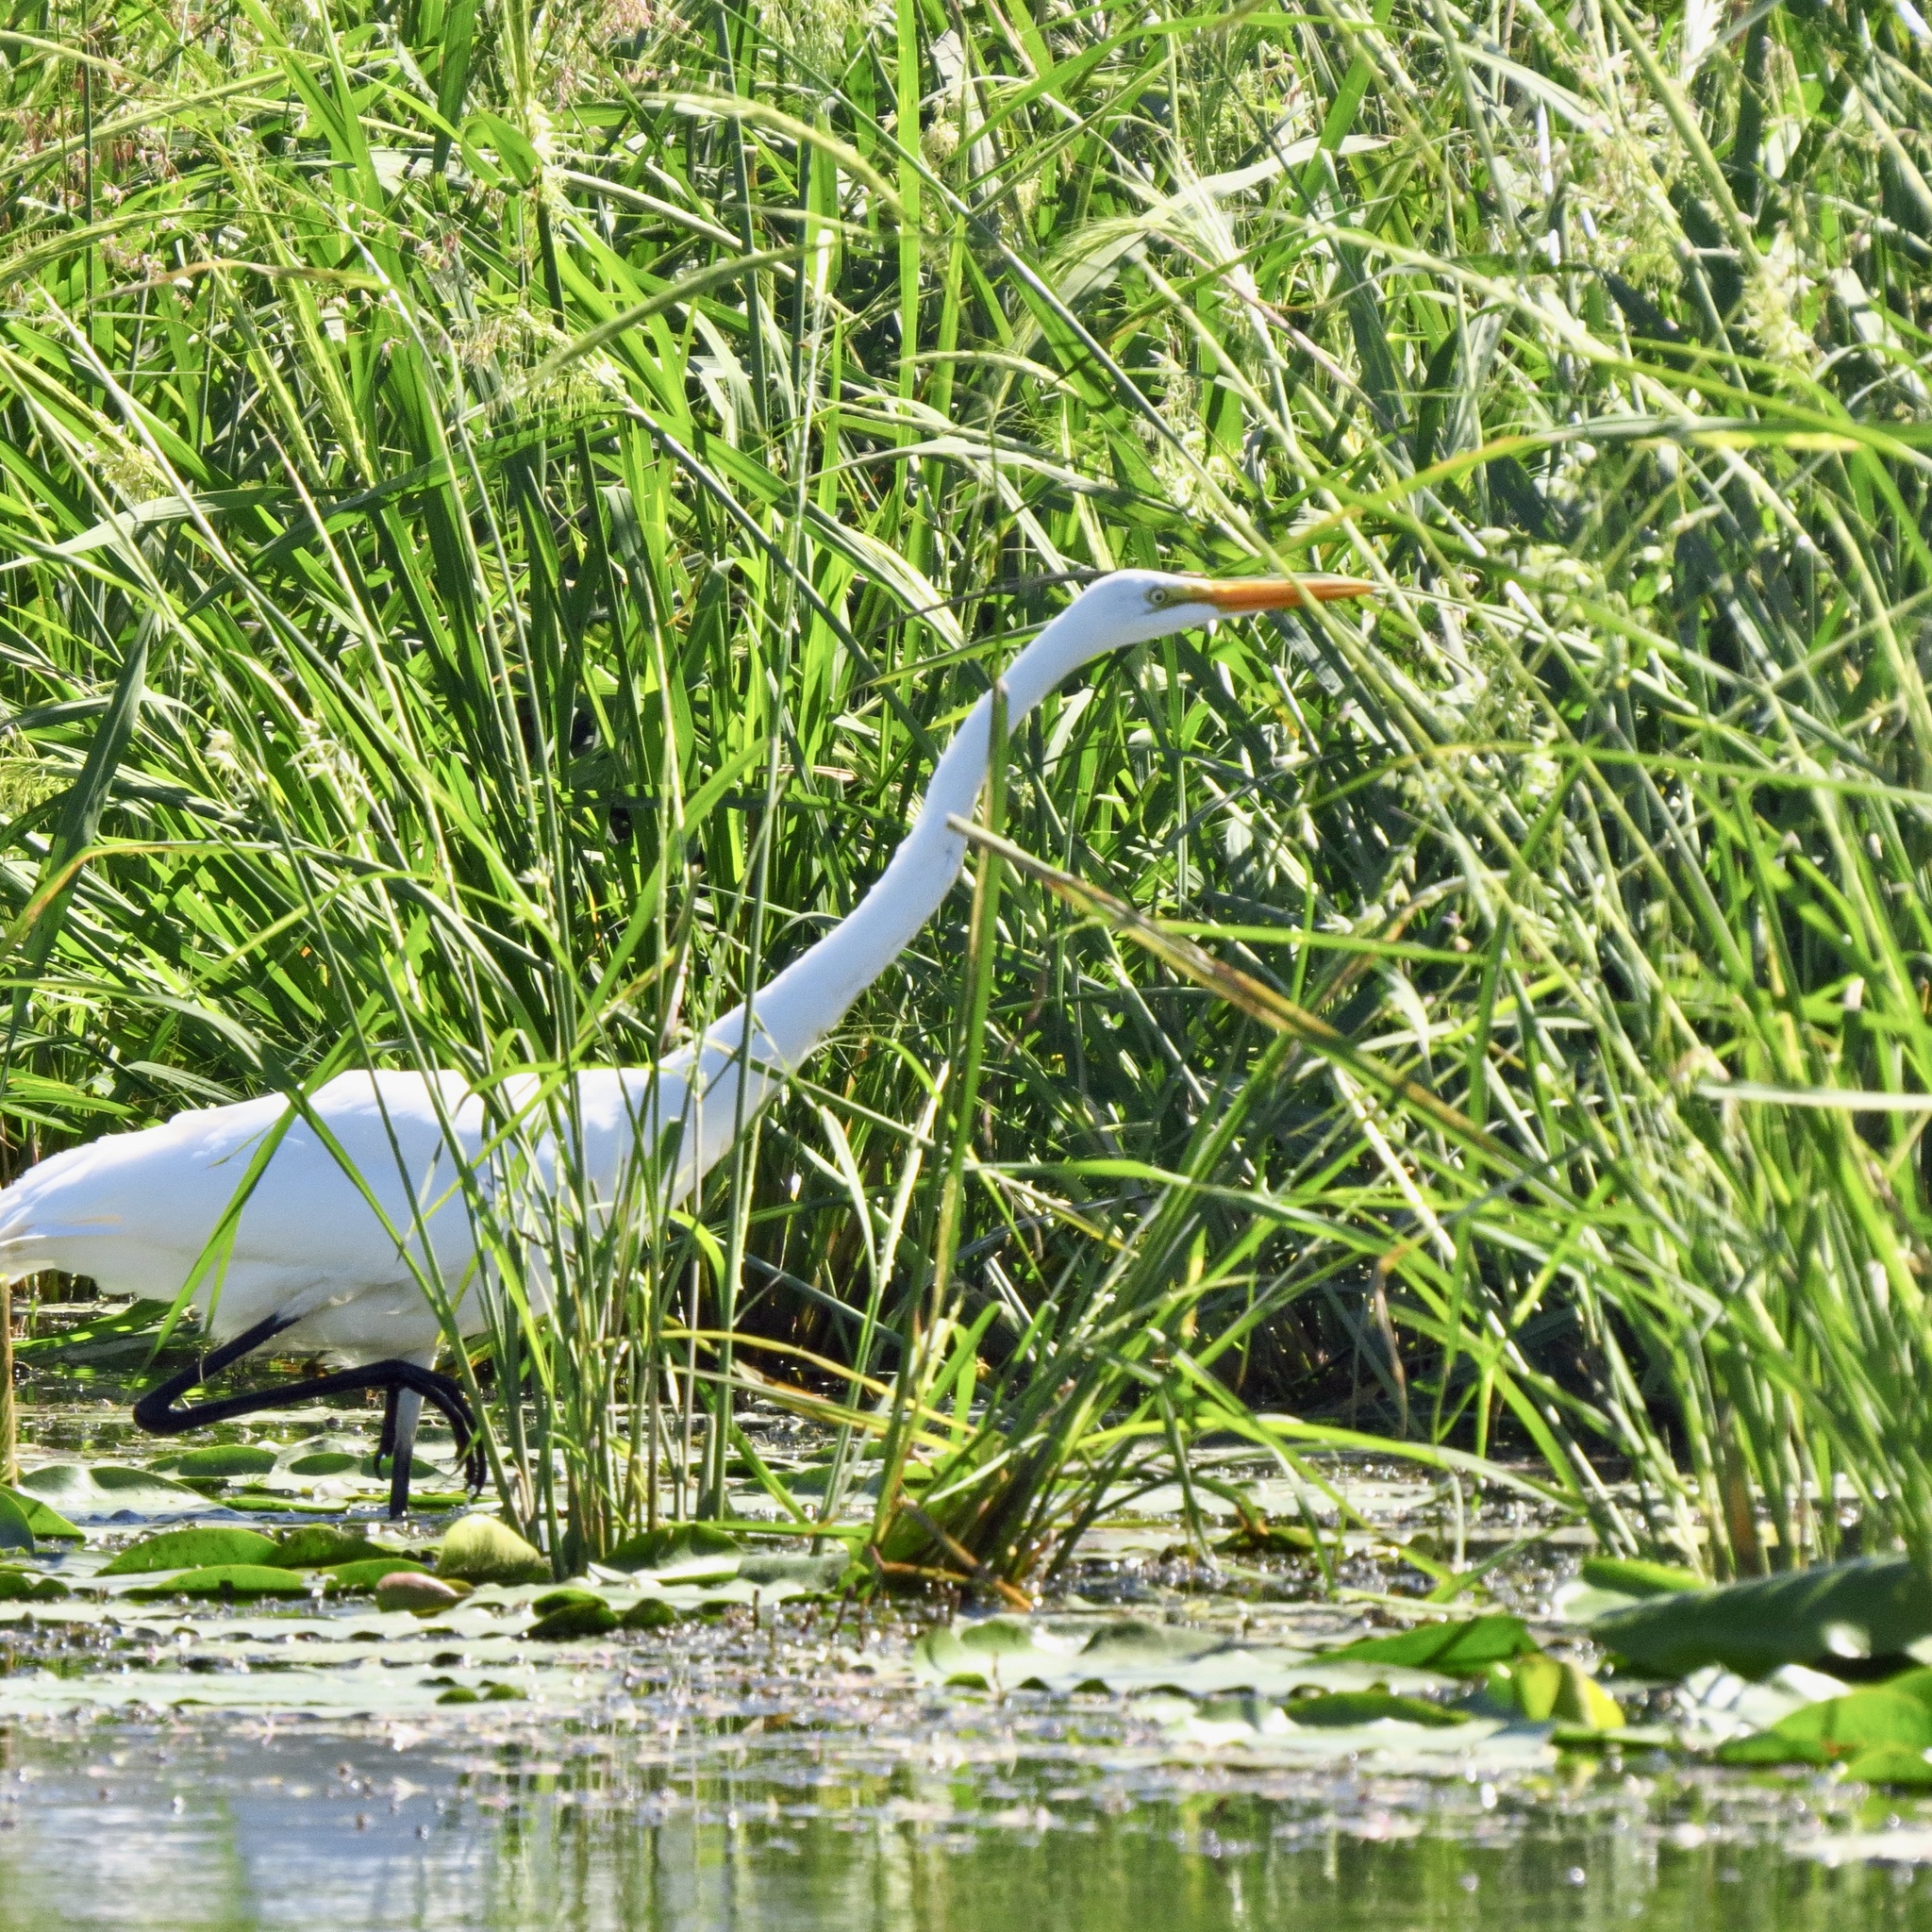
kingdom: Animalia
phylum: Chordata
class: Aves
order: Pelecaniformes
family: Ardeidae
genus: Ardea
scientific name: Ardea alba
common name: Great egret
